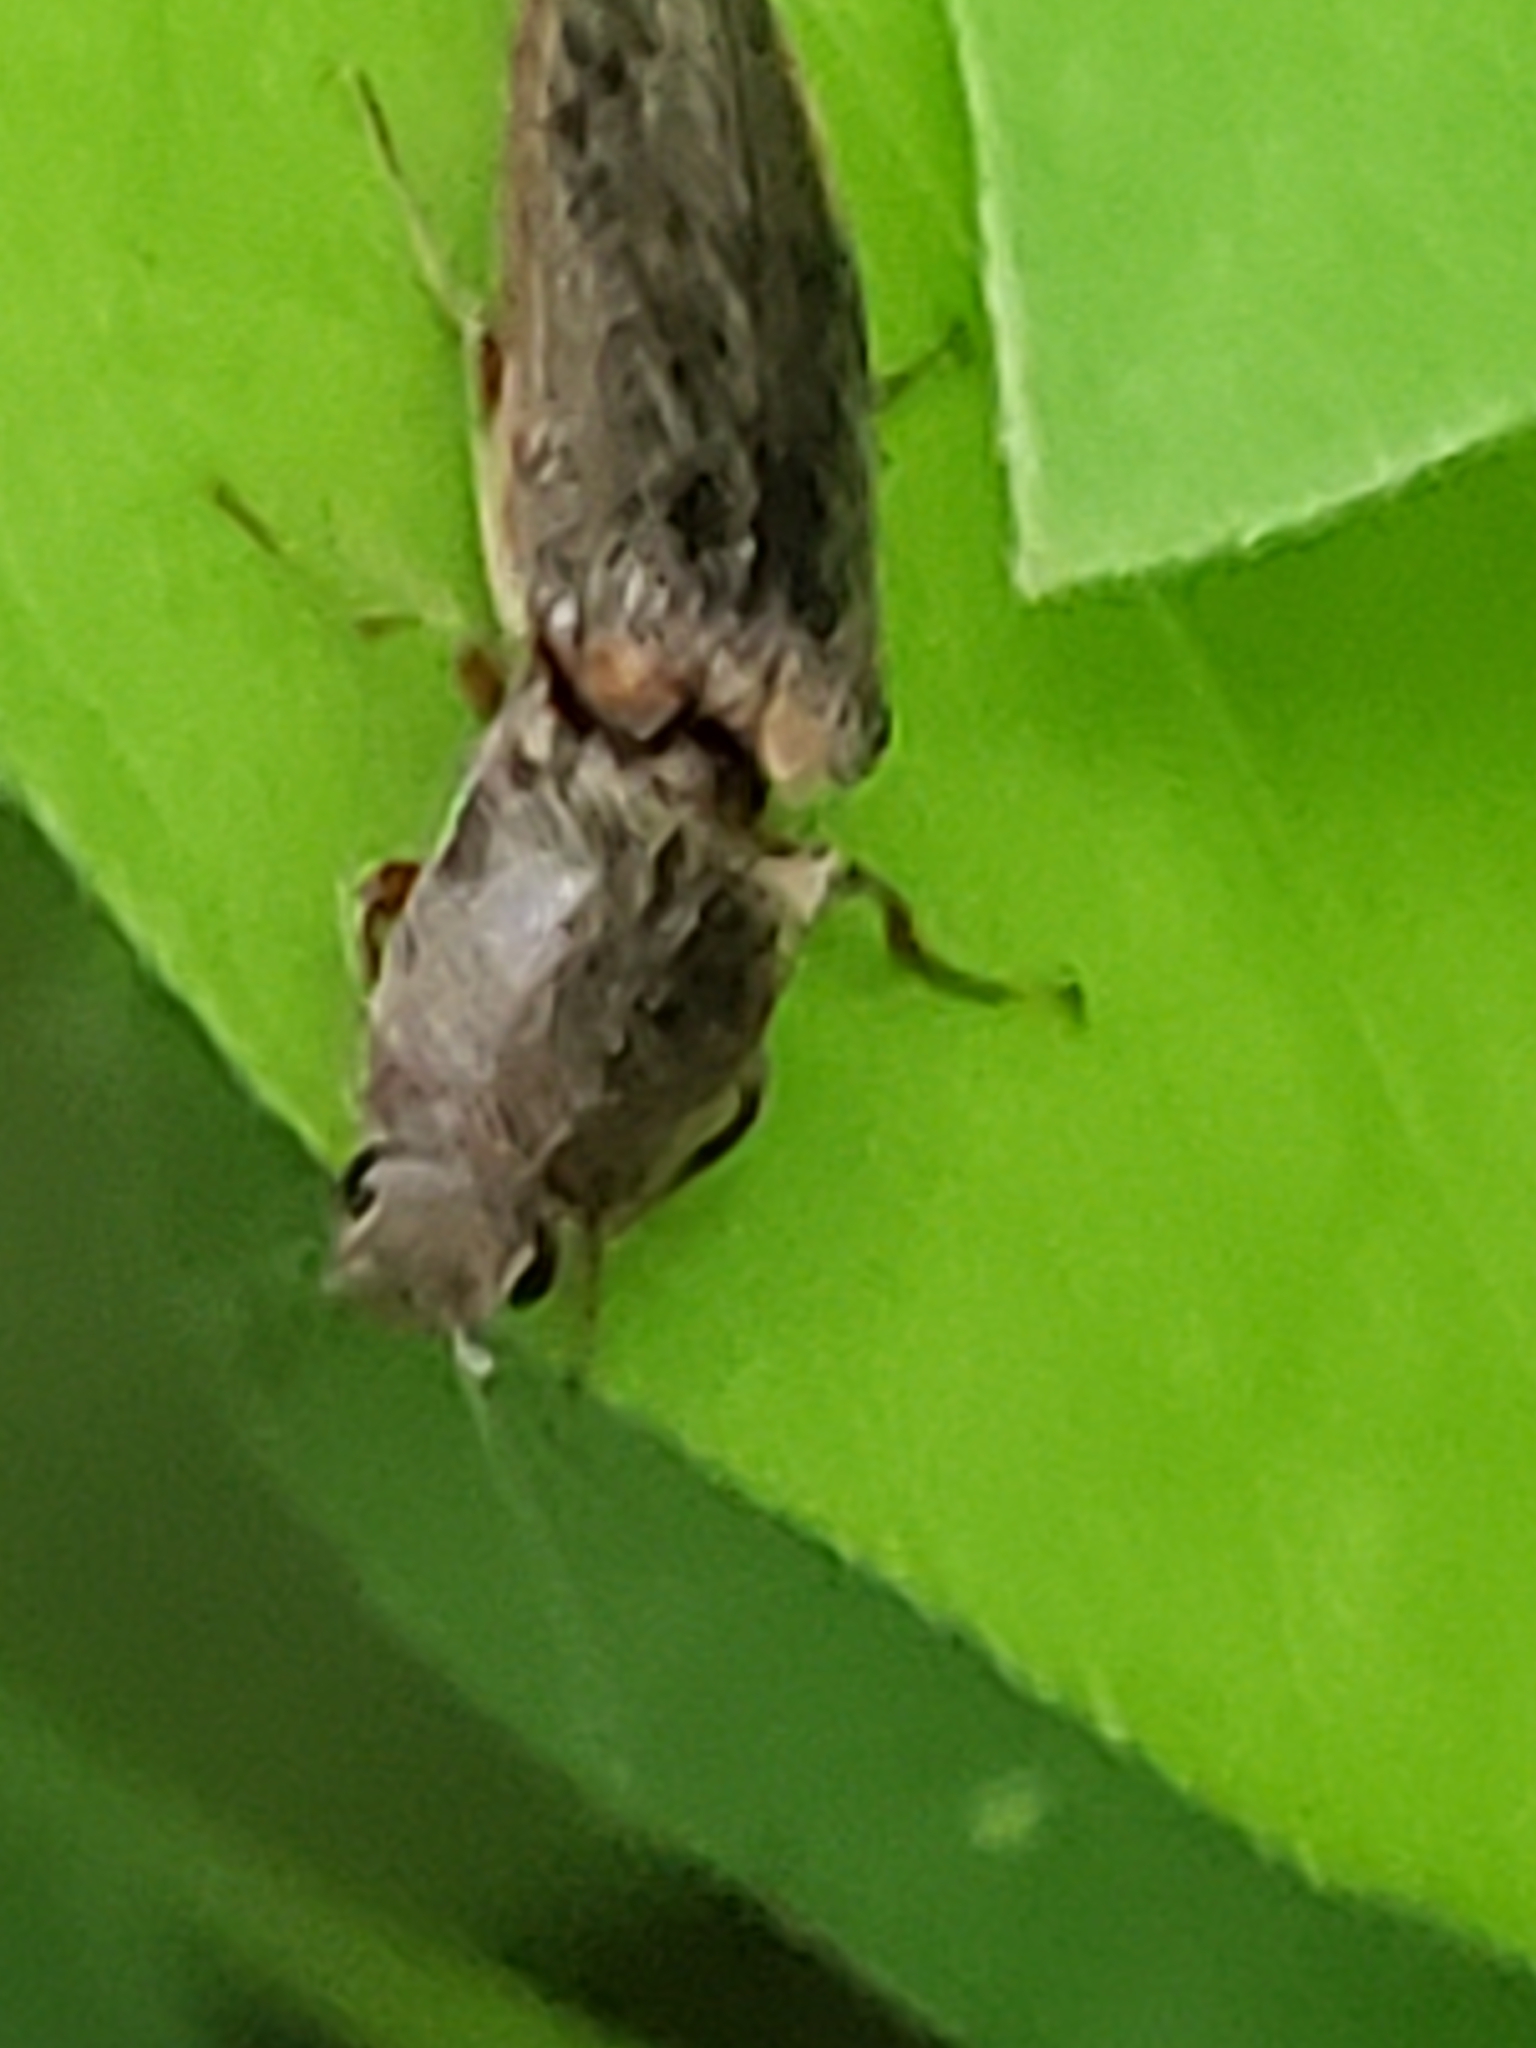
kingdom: Animalia
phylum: Arthropoda
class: Insecta
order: Coleoptera
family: Elateridae
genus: Gambrinus
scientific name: Gambrinus griseus
